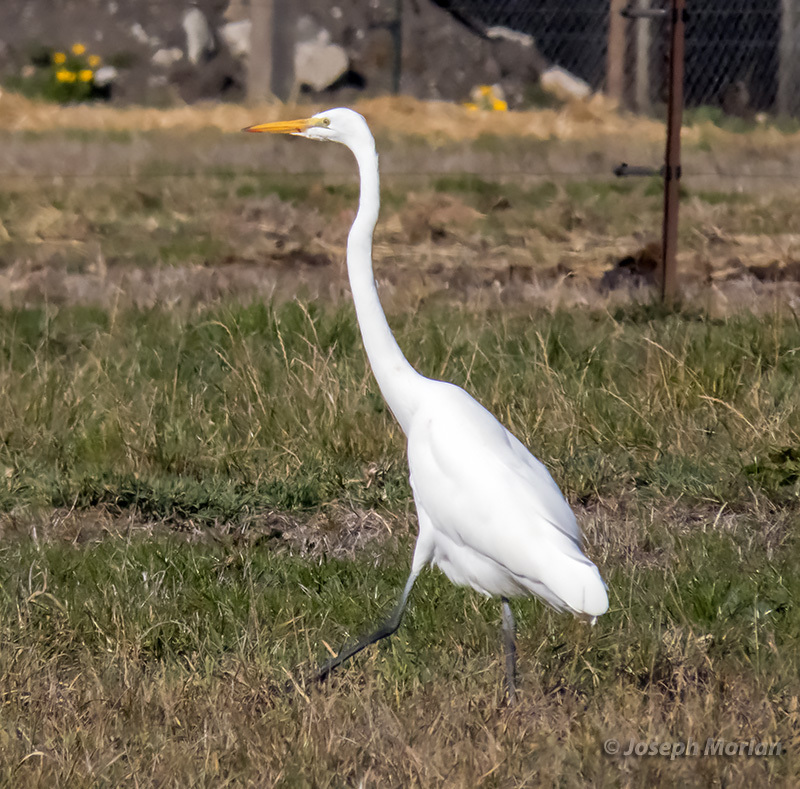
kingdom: Animalia
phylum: Chordata
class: Aves
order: Pelecaniformes
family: Ardeidae
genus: Ardea
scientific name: Ardea alba
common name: Great egret
